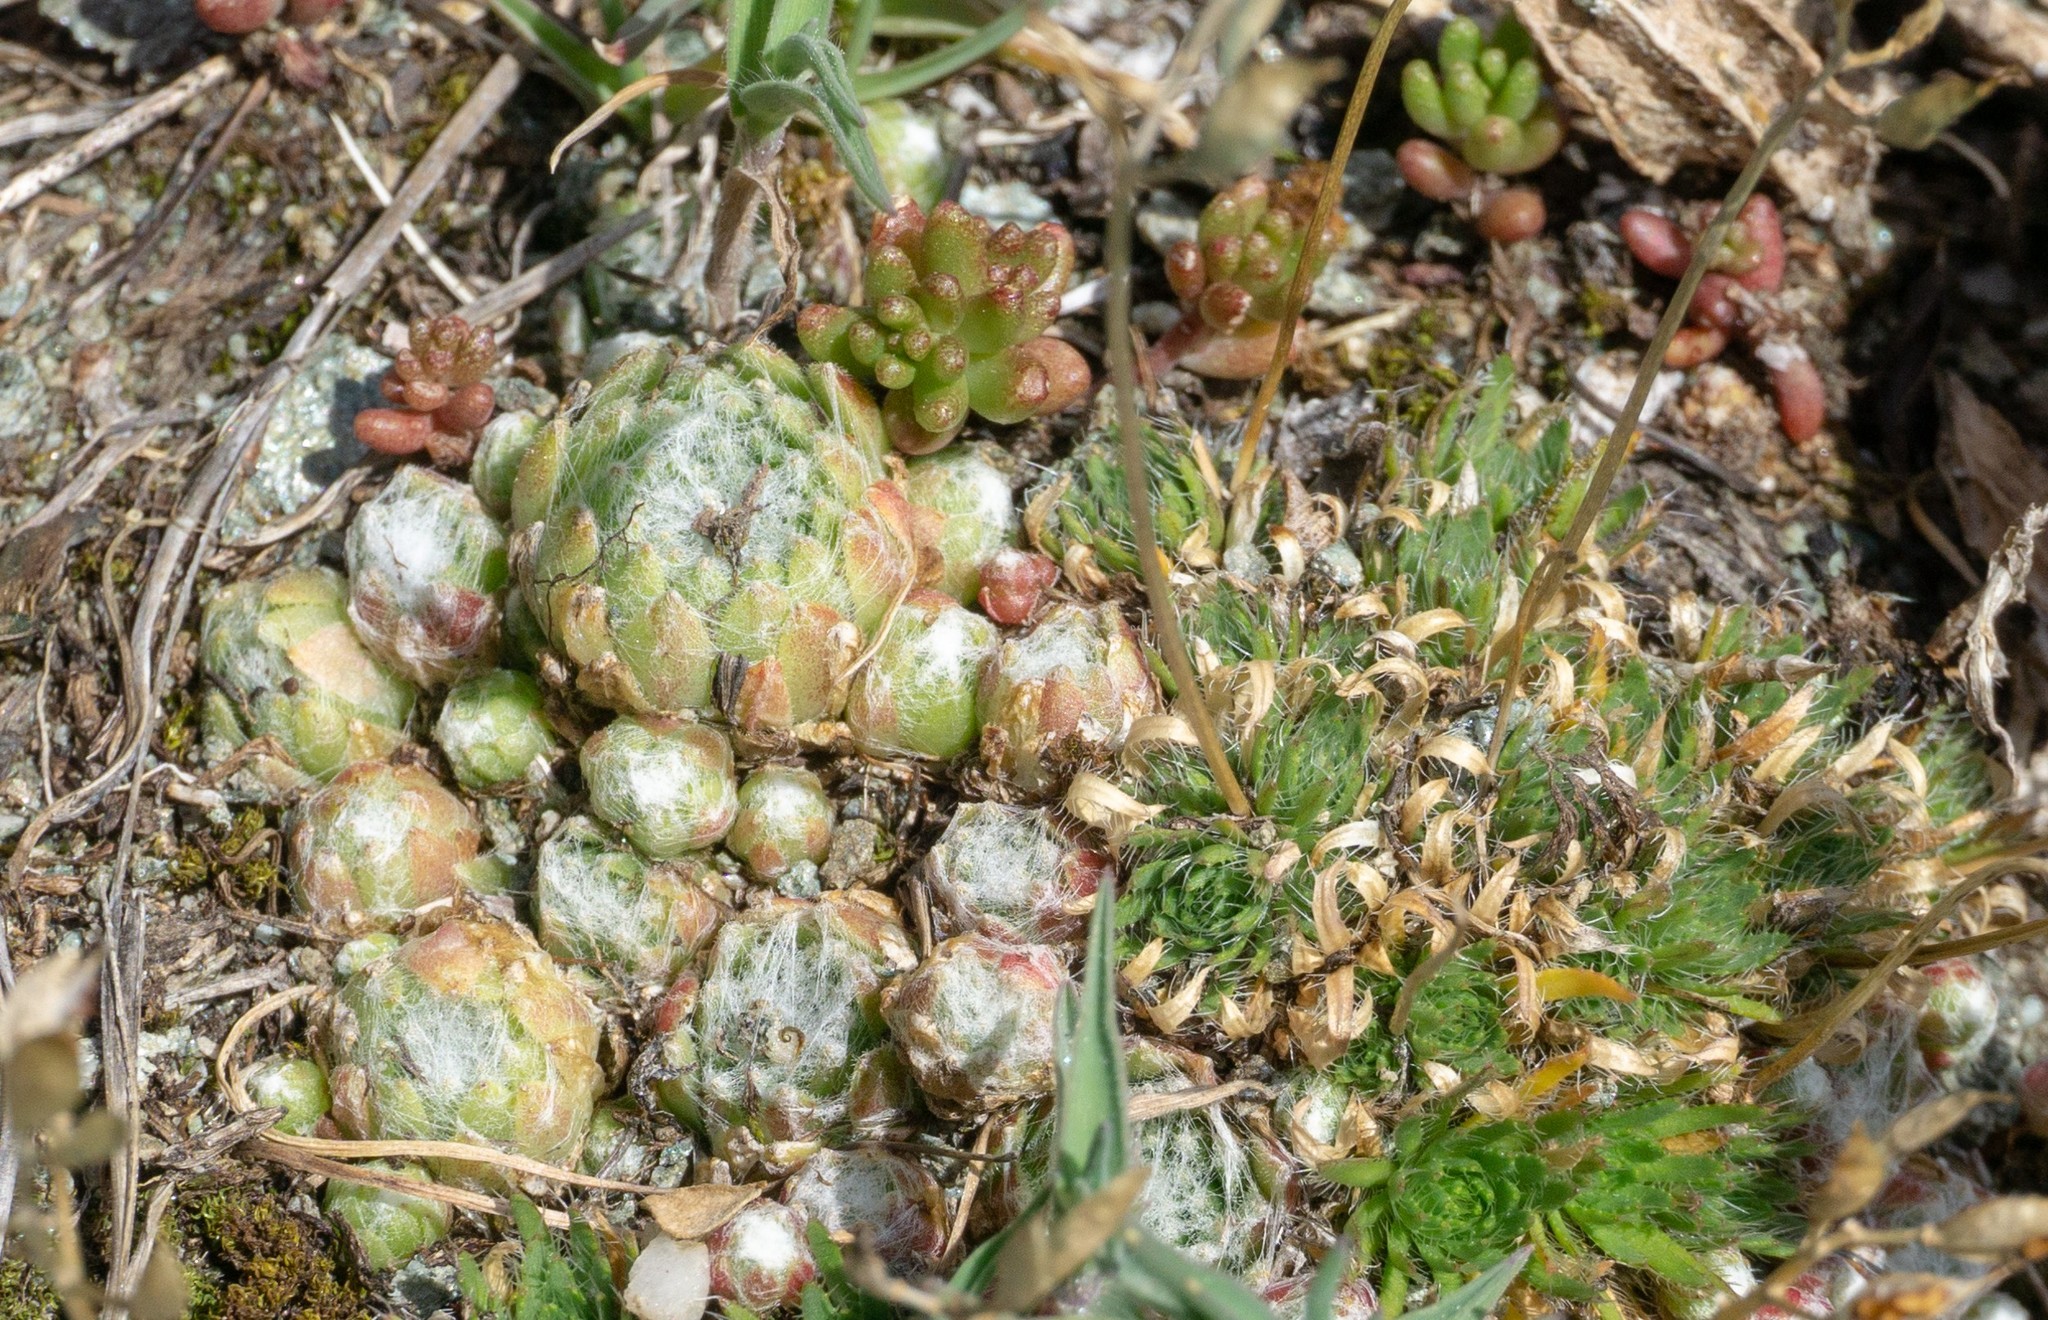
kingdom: Plantae
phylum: Tracheophyta
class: Magnoliopsida
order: Saxifragales
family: Crassulaceae
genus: Sempervivum
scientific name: Sempervivum arachnoideum
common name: Cobweb house-leek
